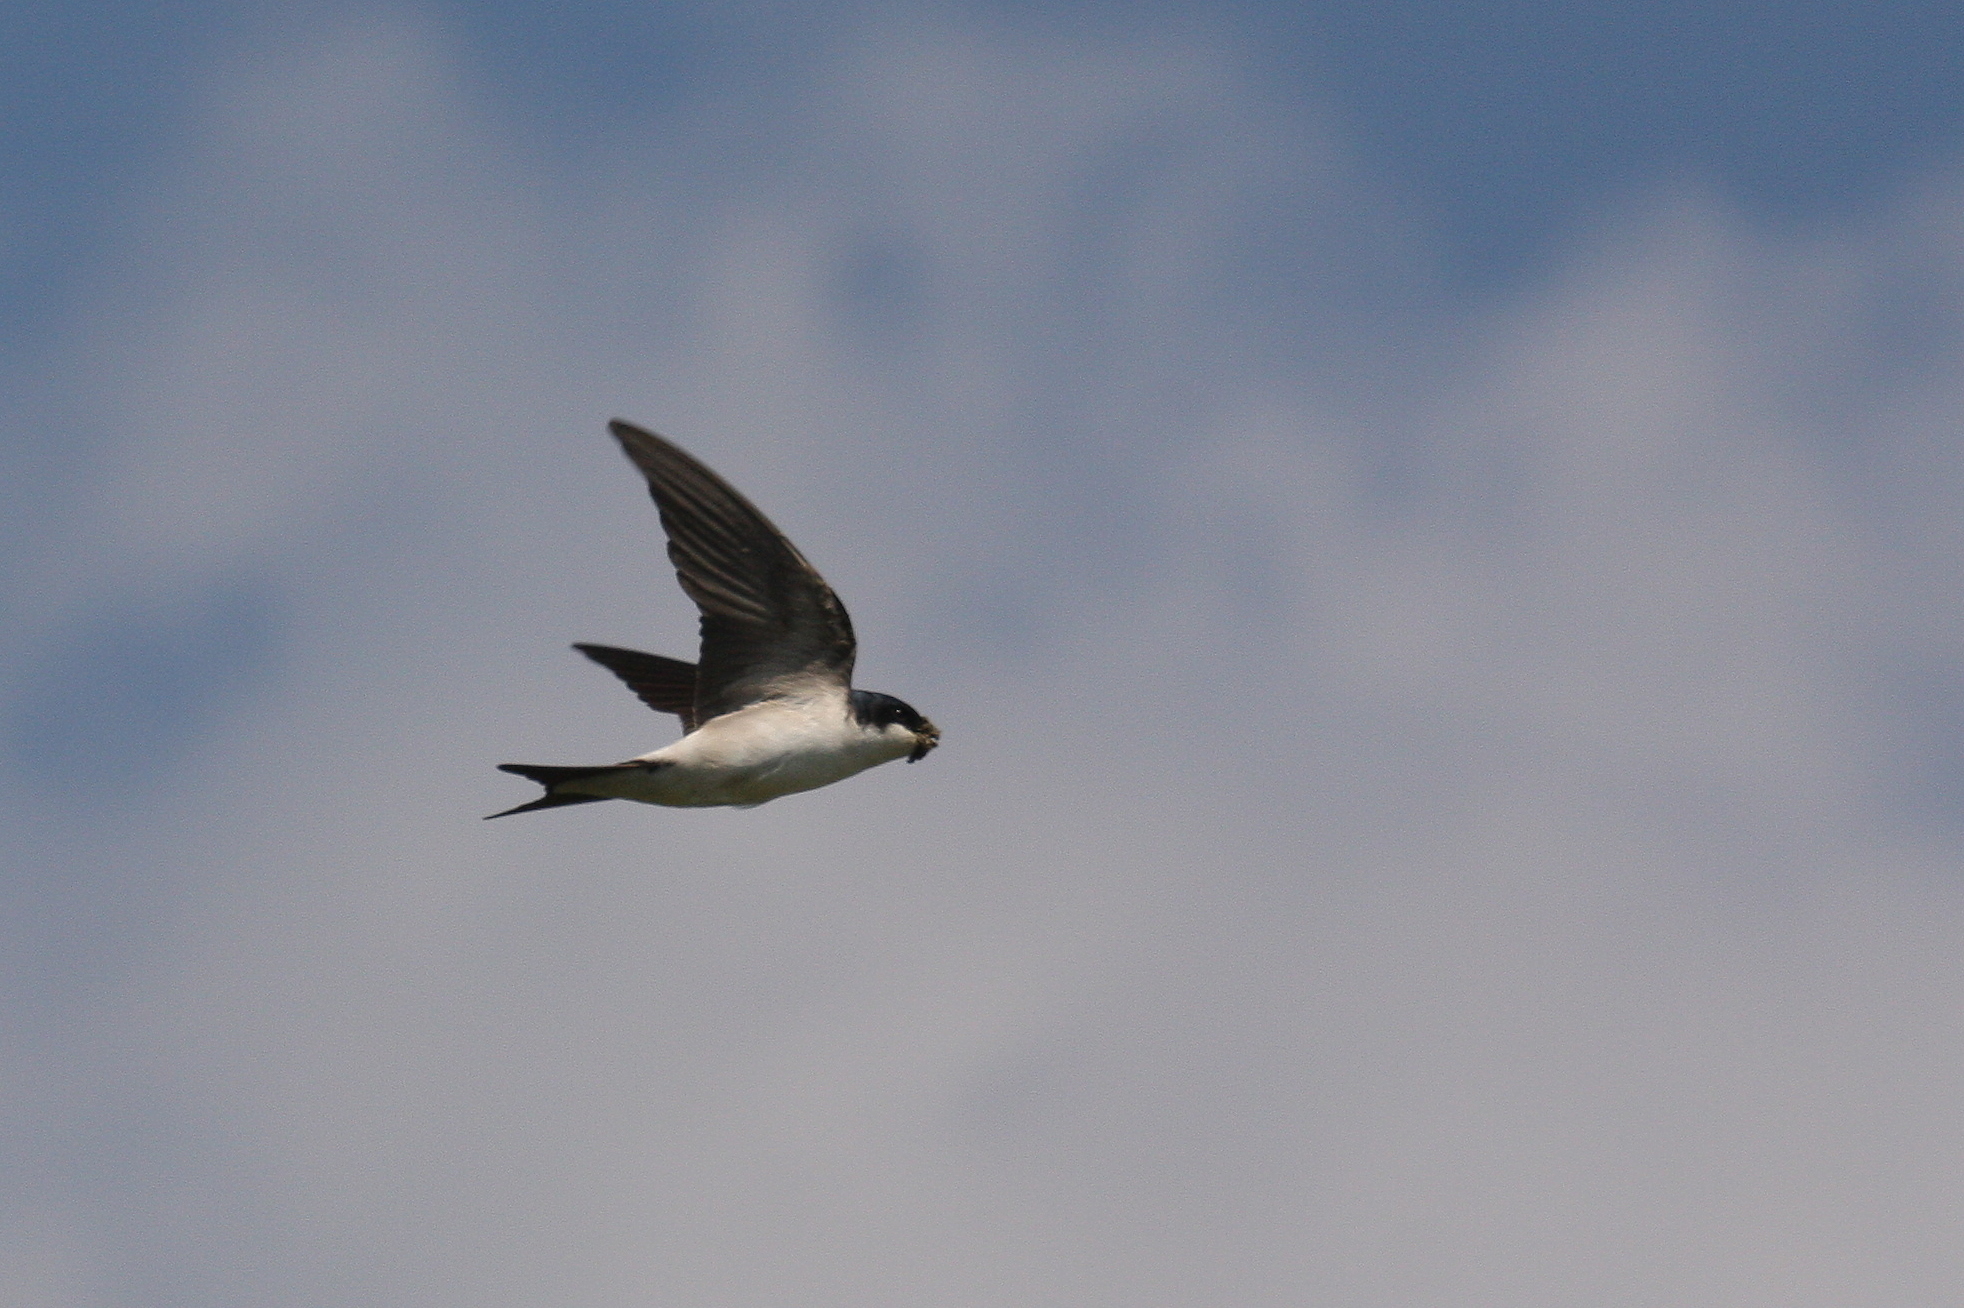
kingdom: Animalia
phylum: Chordata
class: Aves
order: Passeriformes
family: Hirundinidae
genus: Delichon
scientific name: Delichon urbicum
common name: Common house martin
